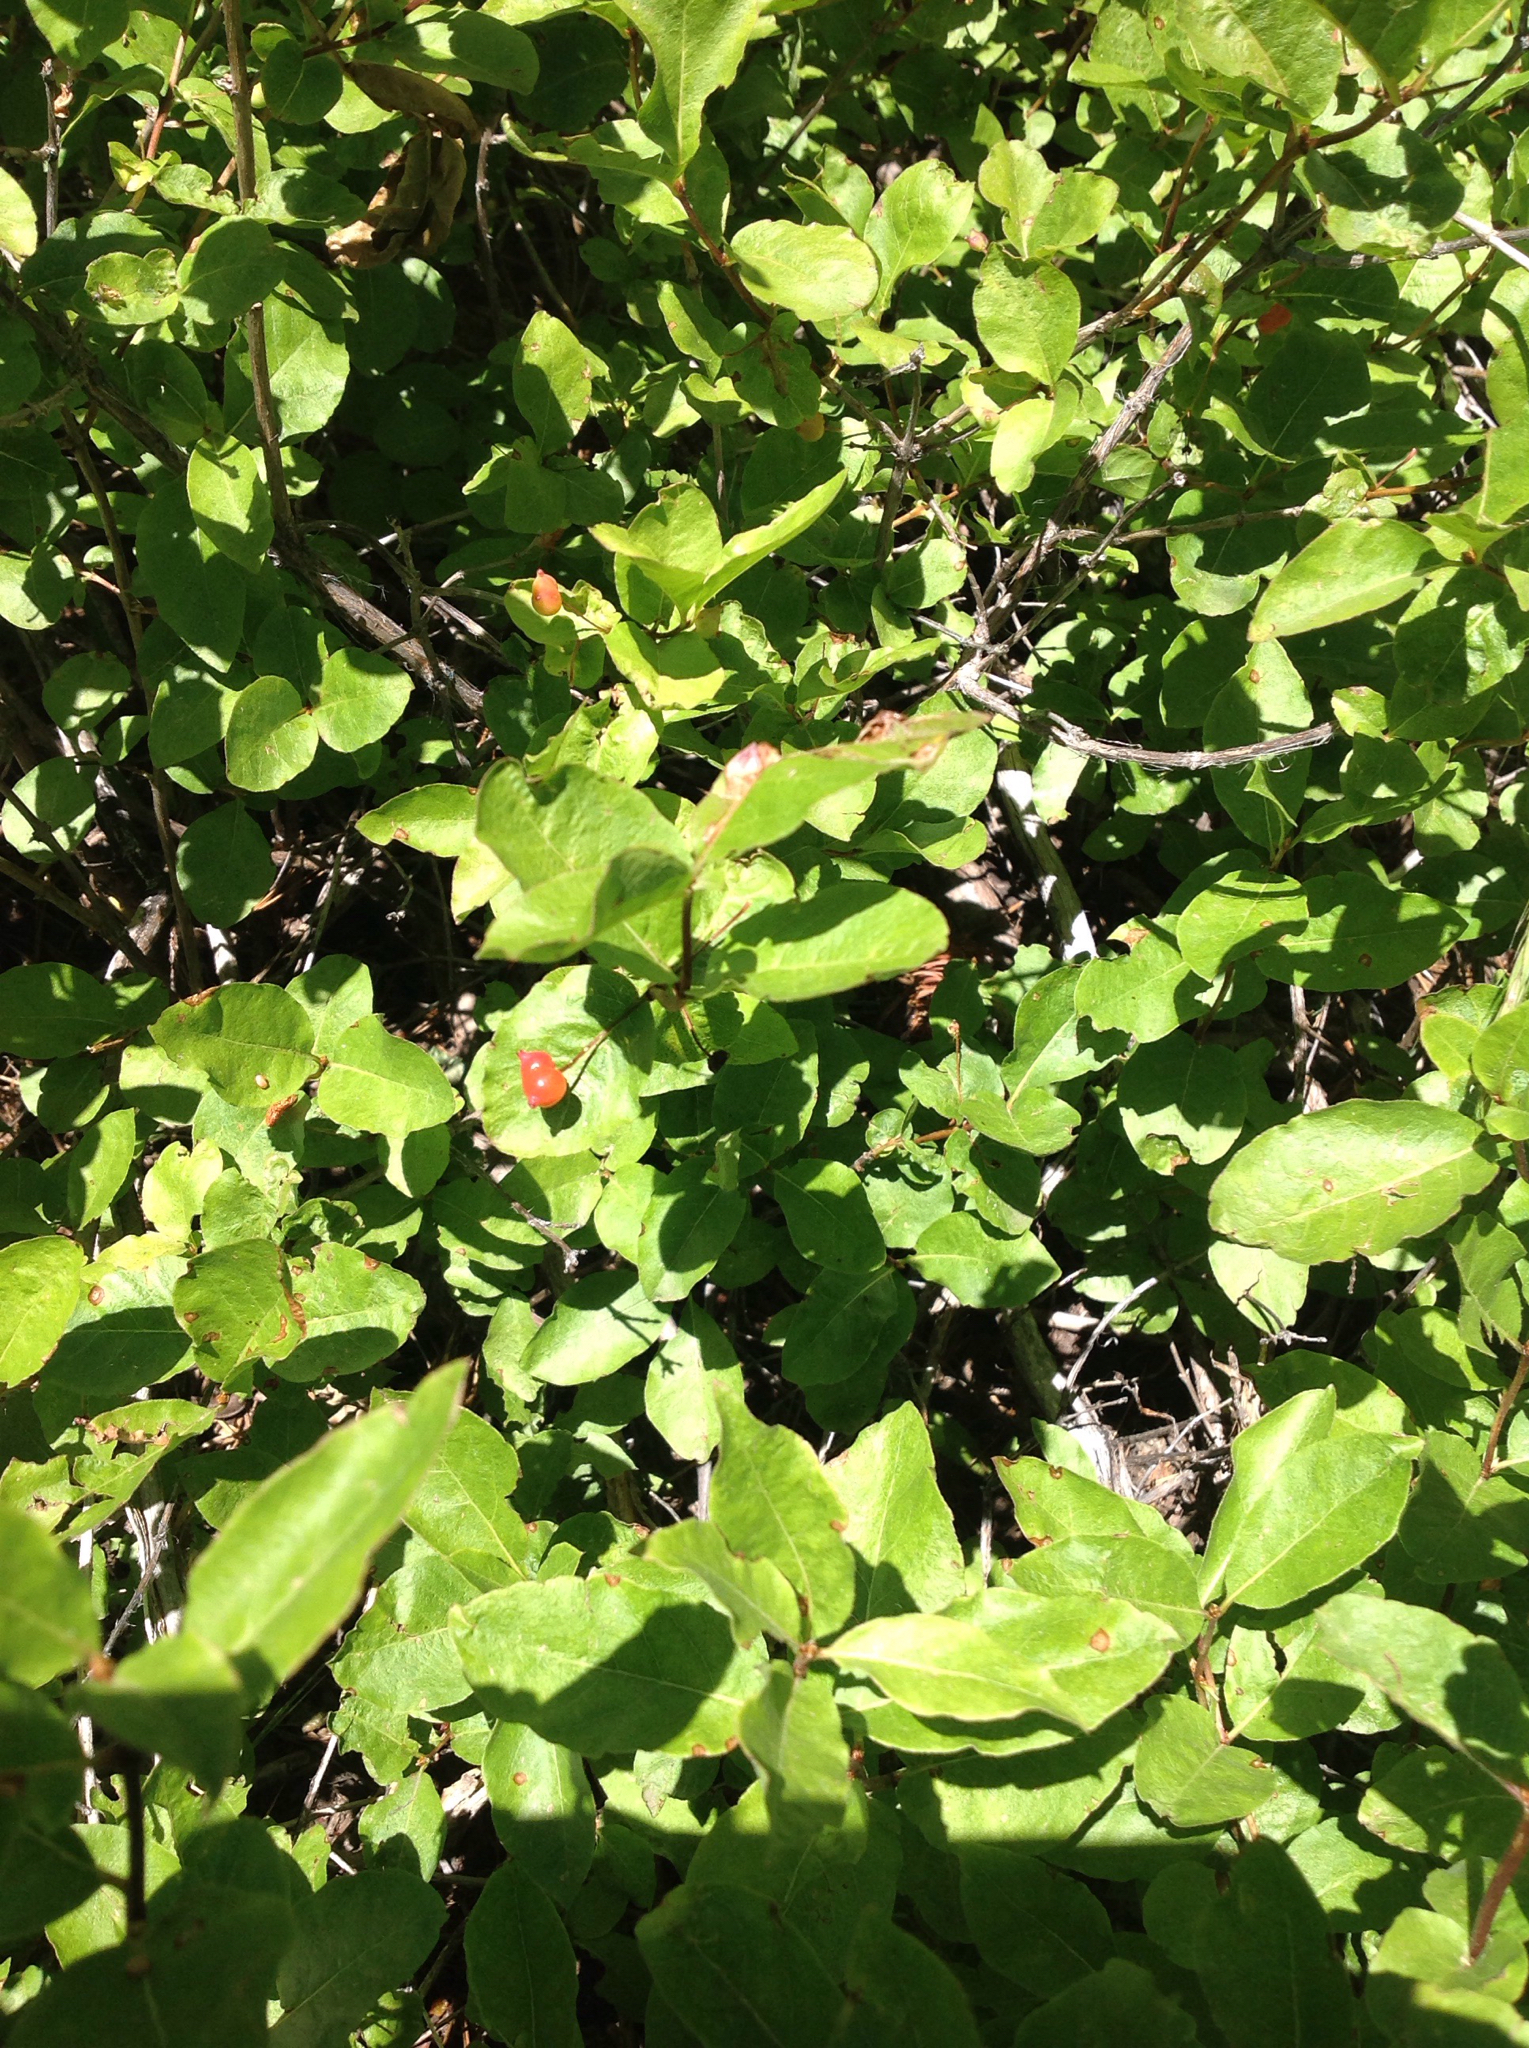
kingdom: Plantae
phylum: Tracheophyta
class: Magnoliopsida
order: Dipsacales
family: Caprifoliaceae
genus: Lonicera
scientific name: Lonicera conjugialis
